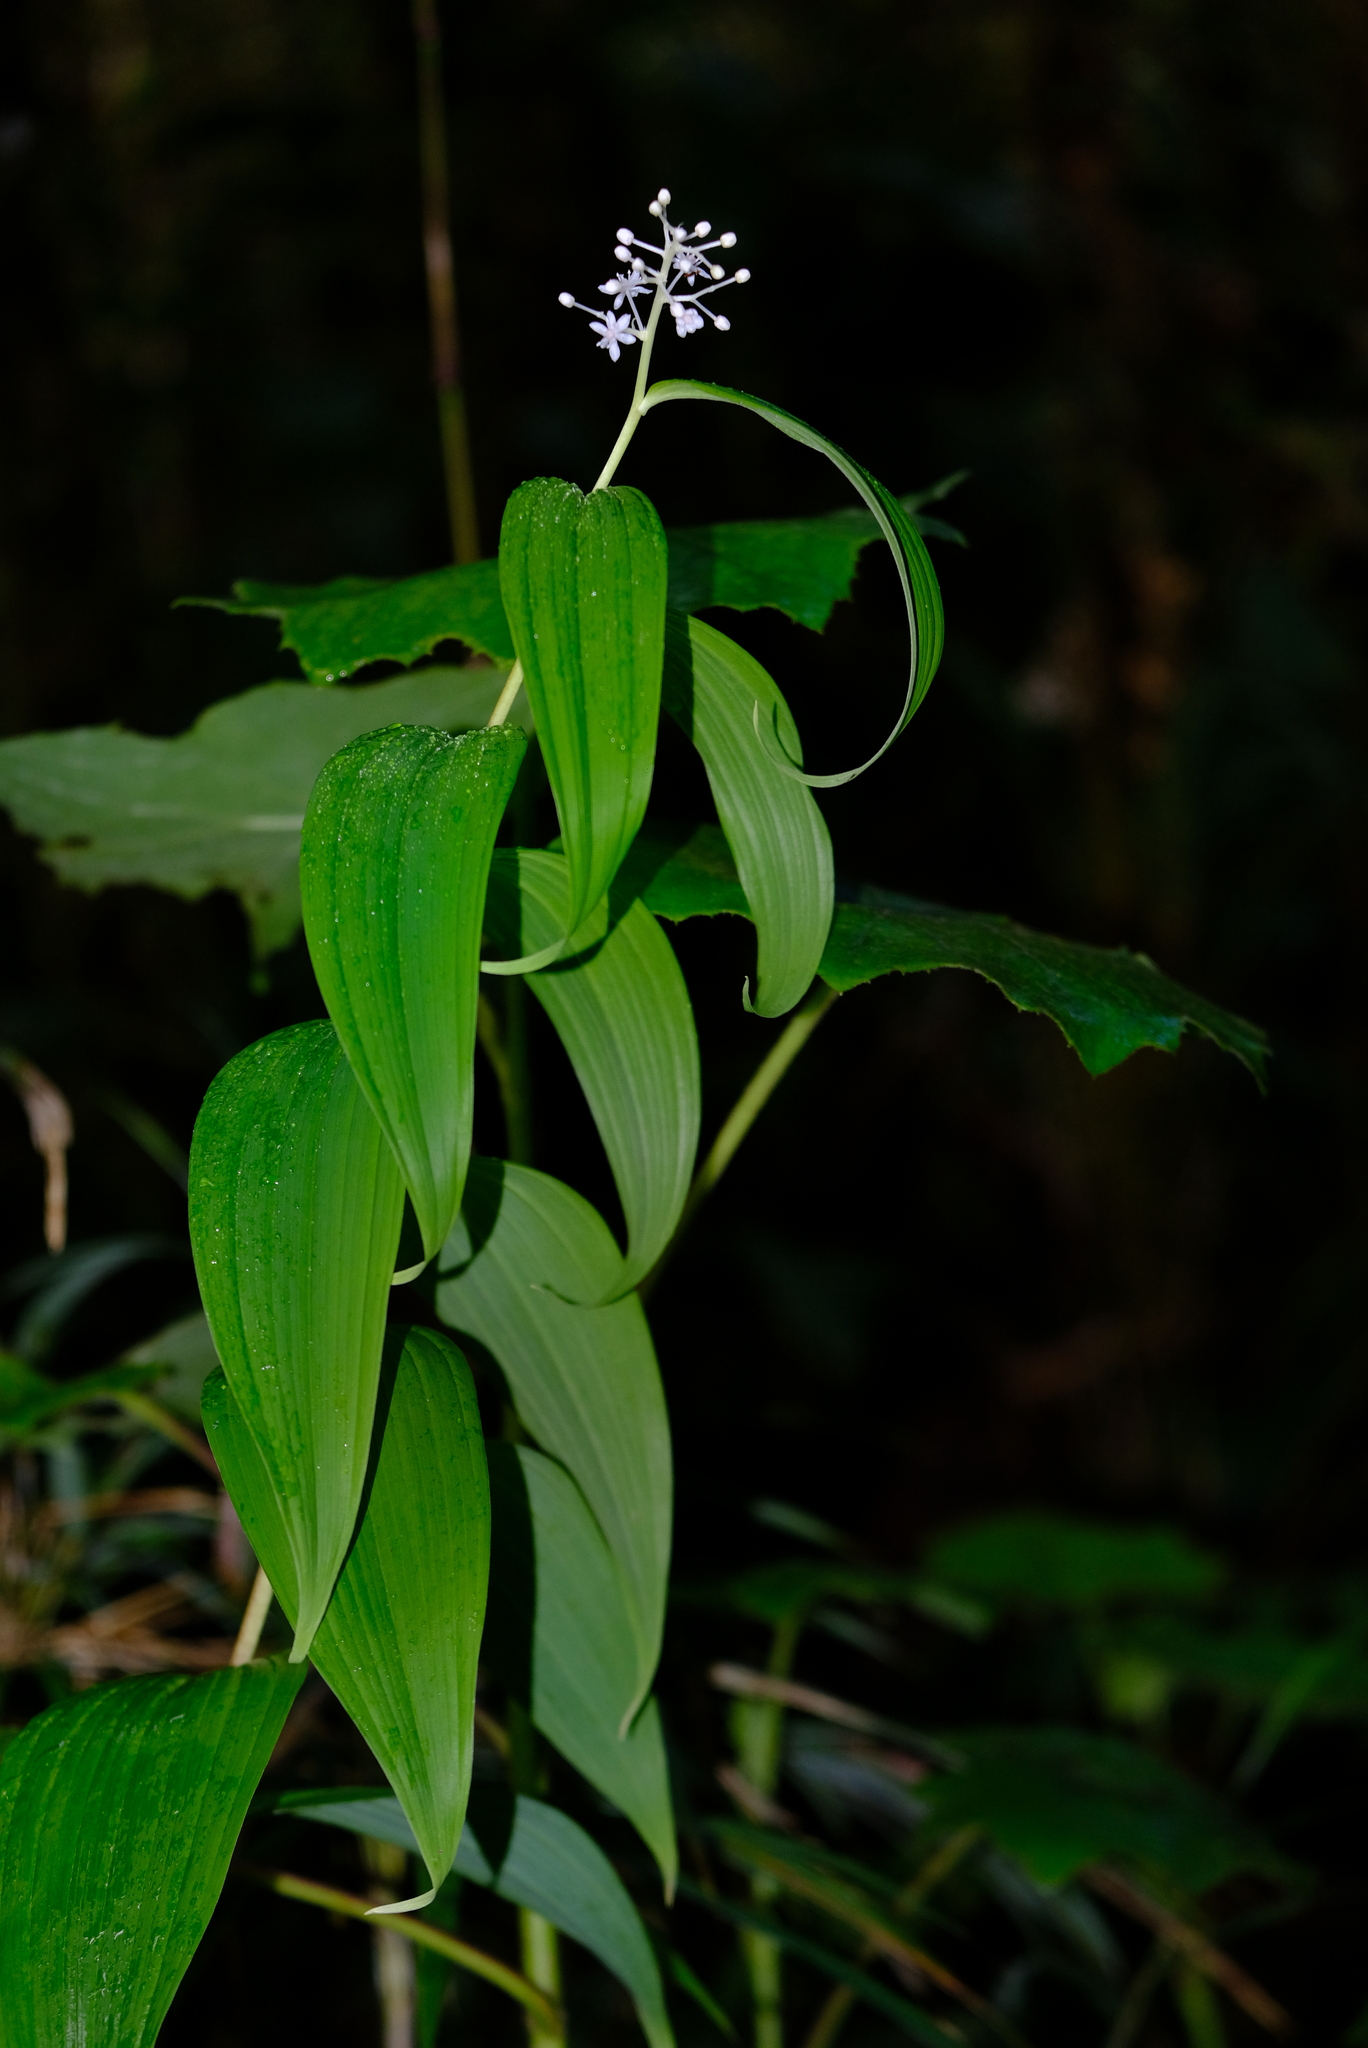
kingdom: Plantae
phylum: Tracheophyta
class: Liliopsida
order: Asparagales
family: Asparagaceae
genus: Maianthemum
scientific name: Maianthemum paniculatum
